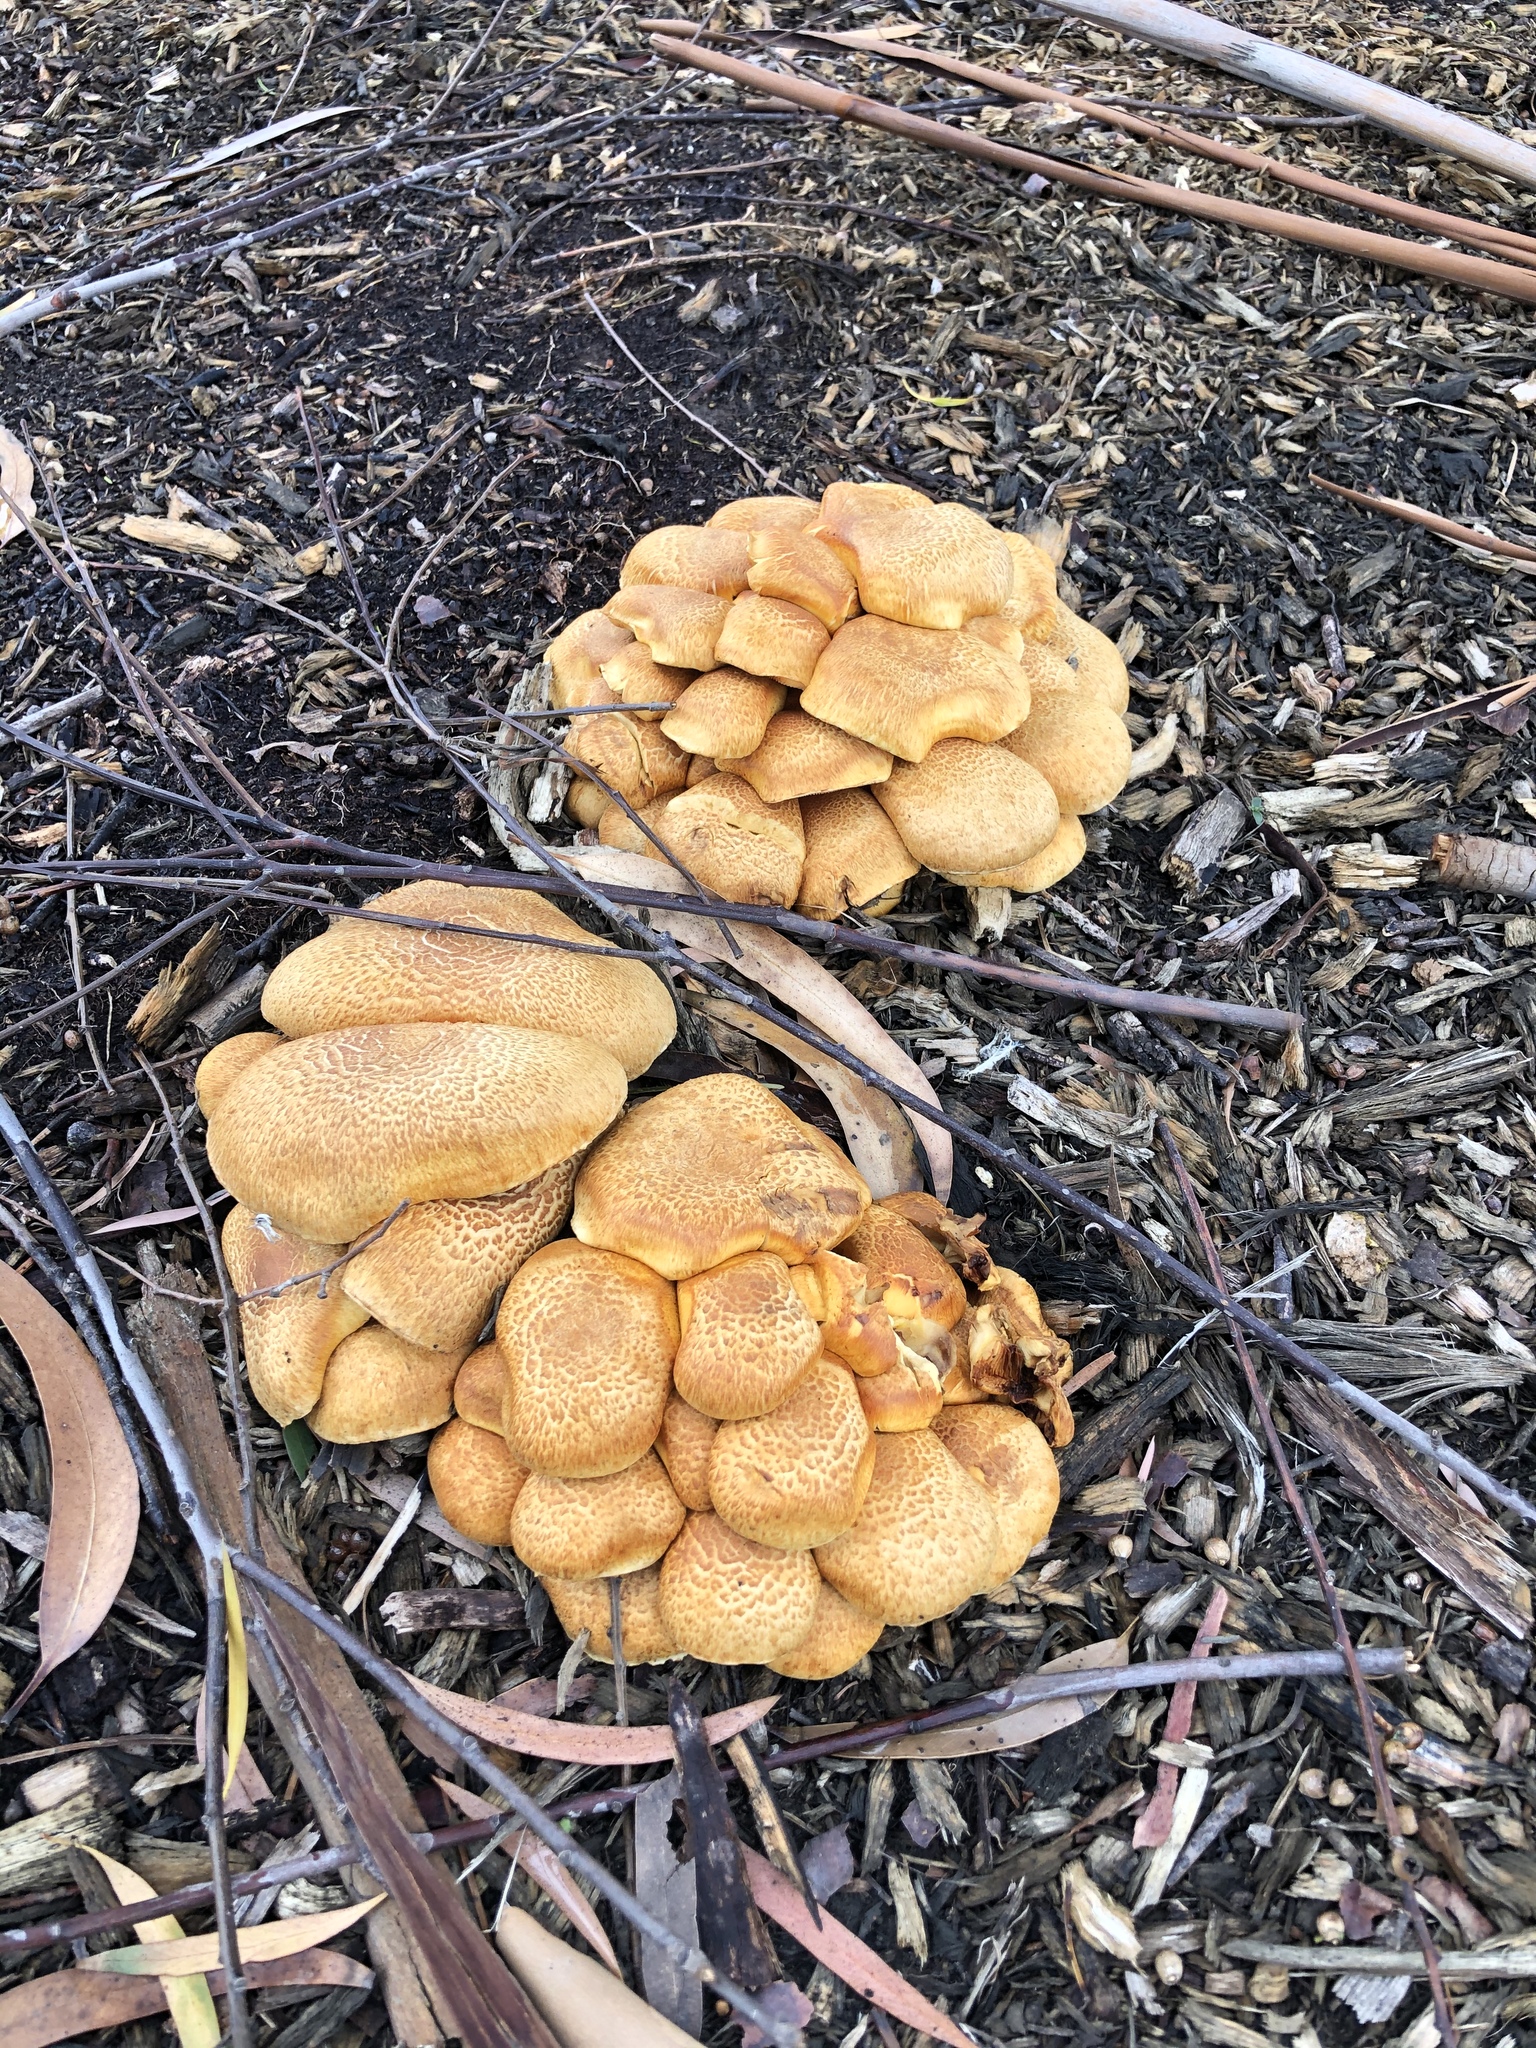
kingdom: Fungi
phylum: Basidiomycota
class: Agaricomycetes
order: Agaricales
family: Hymenogastraceae
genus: Gymnopilus
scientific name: Gymnopilus junonius
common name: Spectacular rustgill
